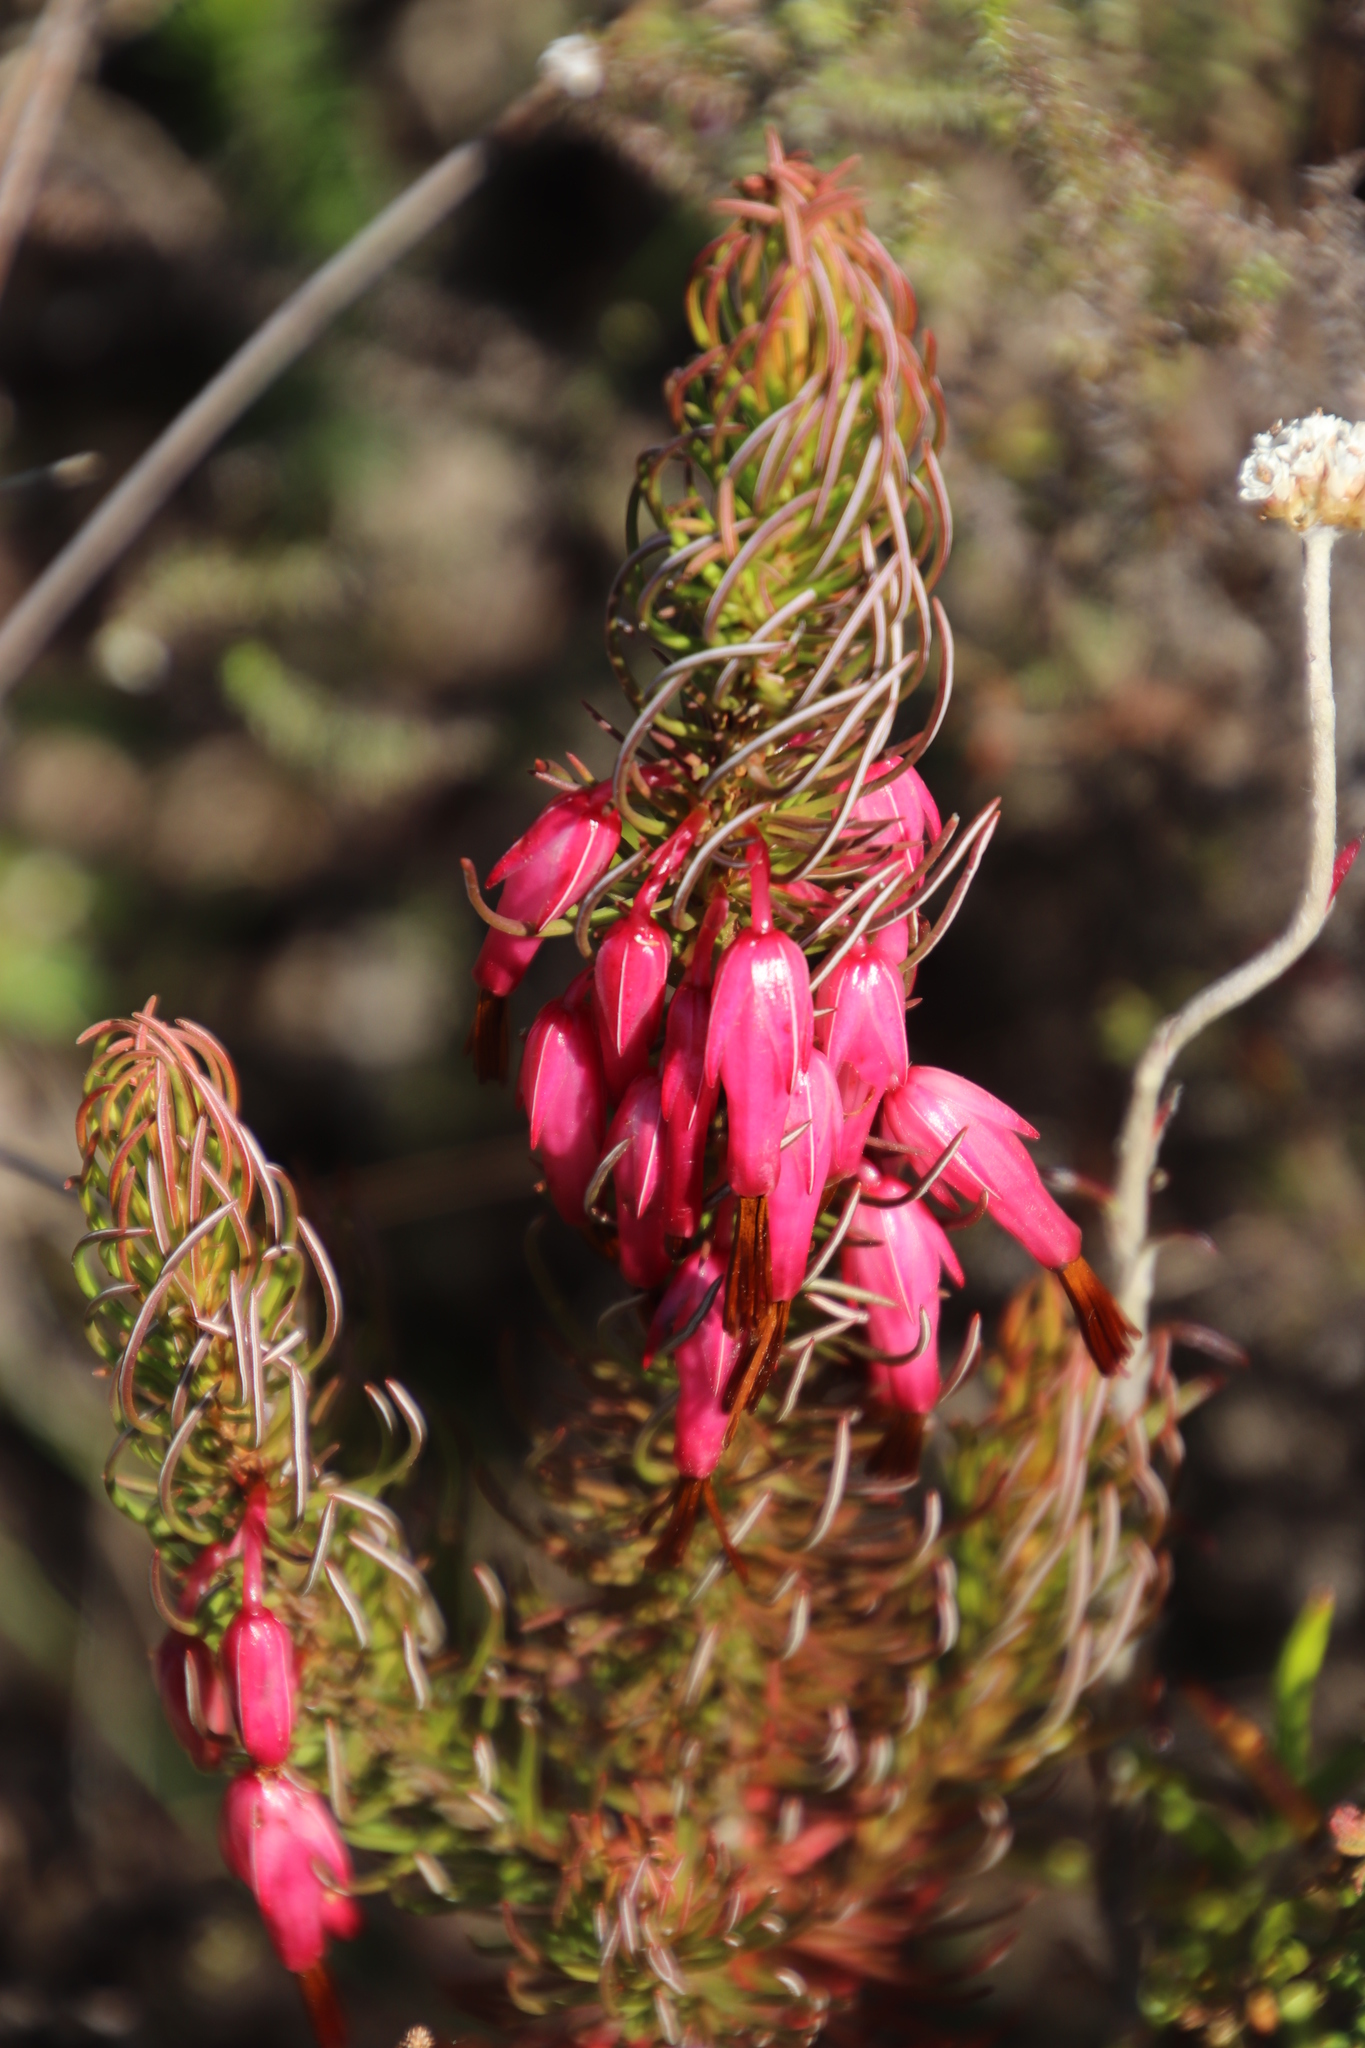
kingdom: Plantae
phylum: Tracheophyta
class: Magnoliopsida
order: Ericales
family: Ericaceae
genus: Erica
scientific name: Erica plukenetii
